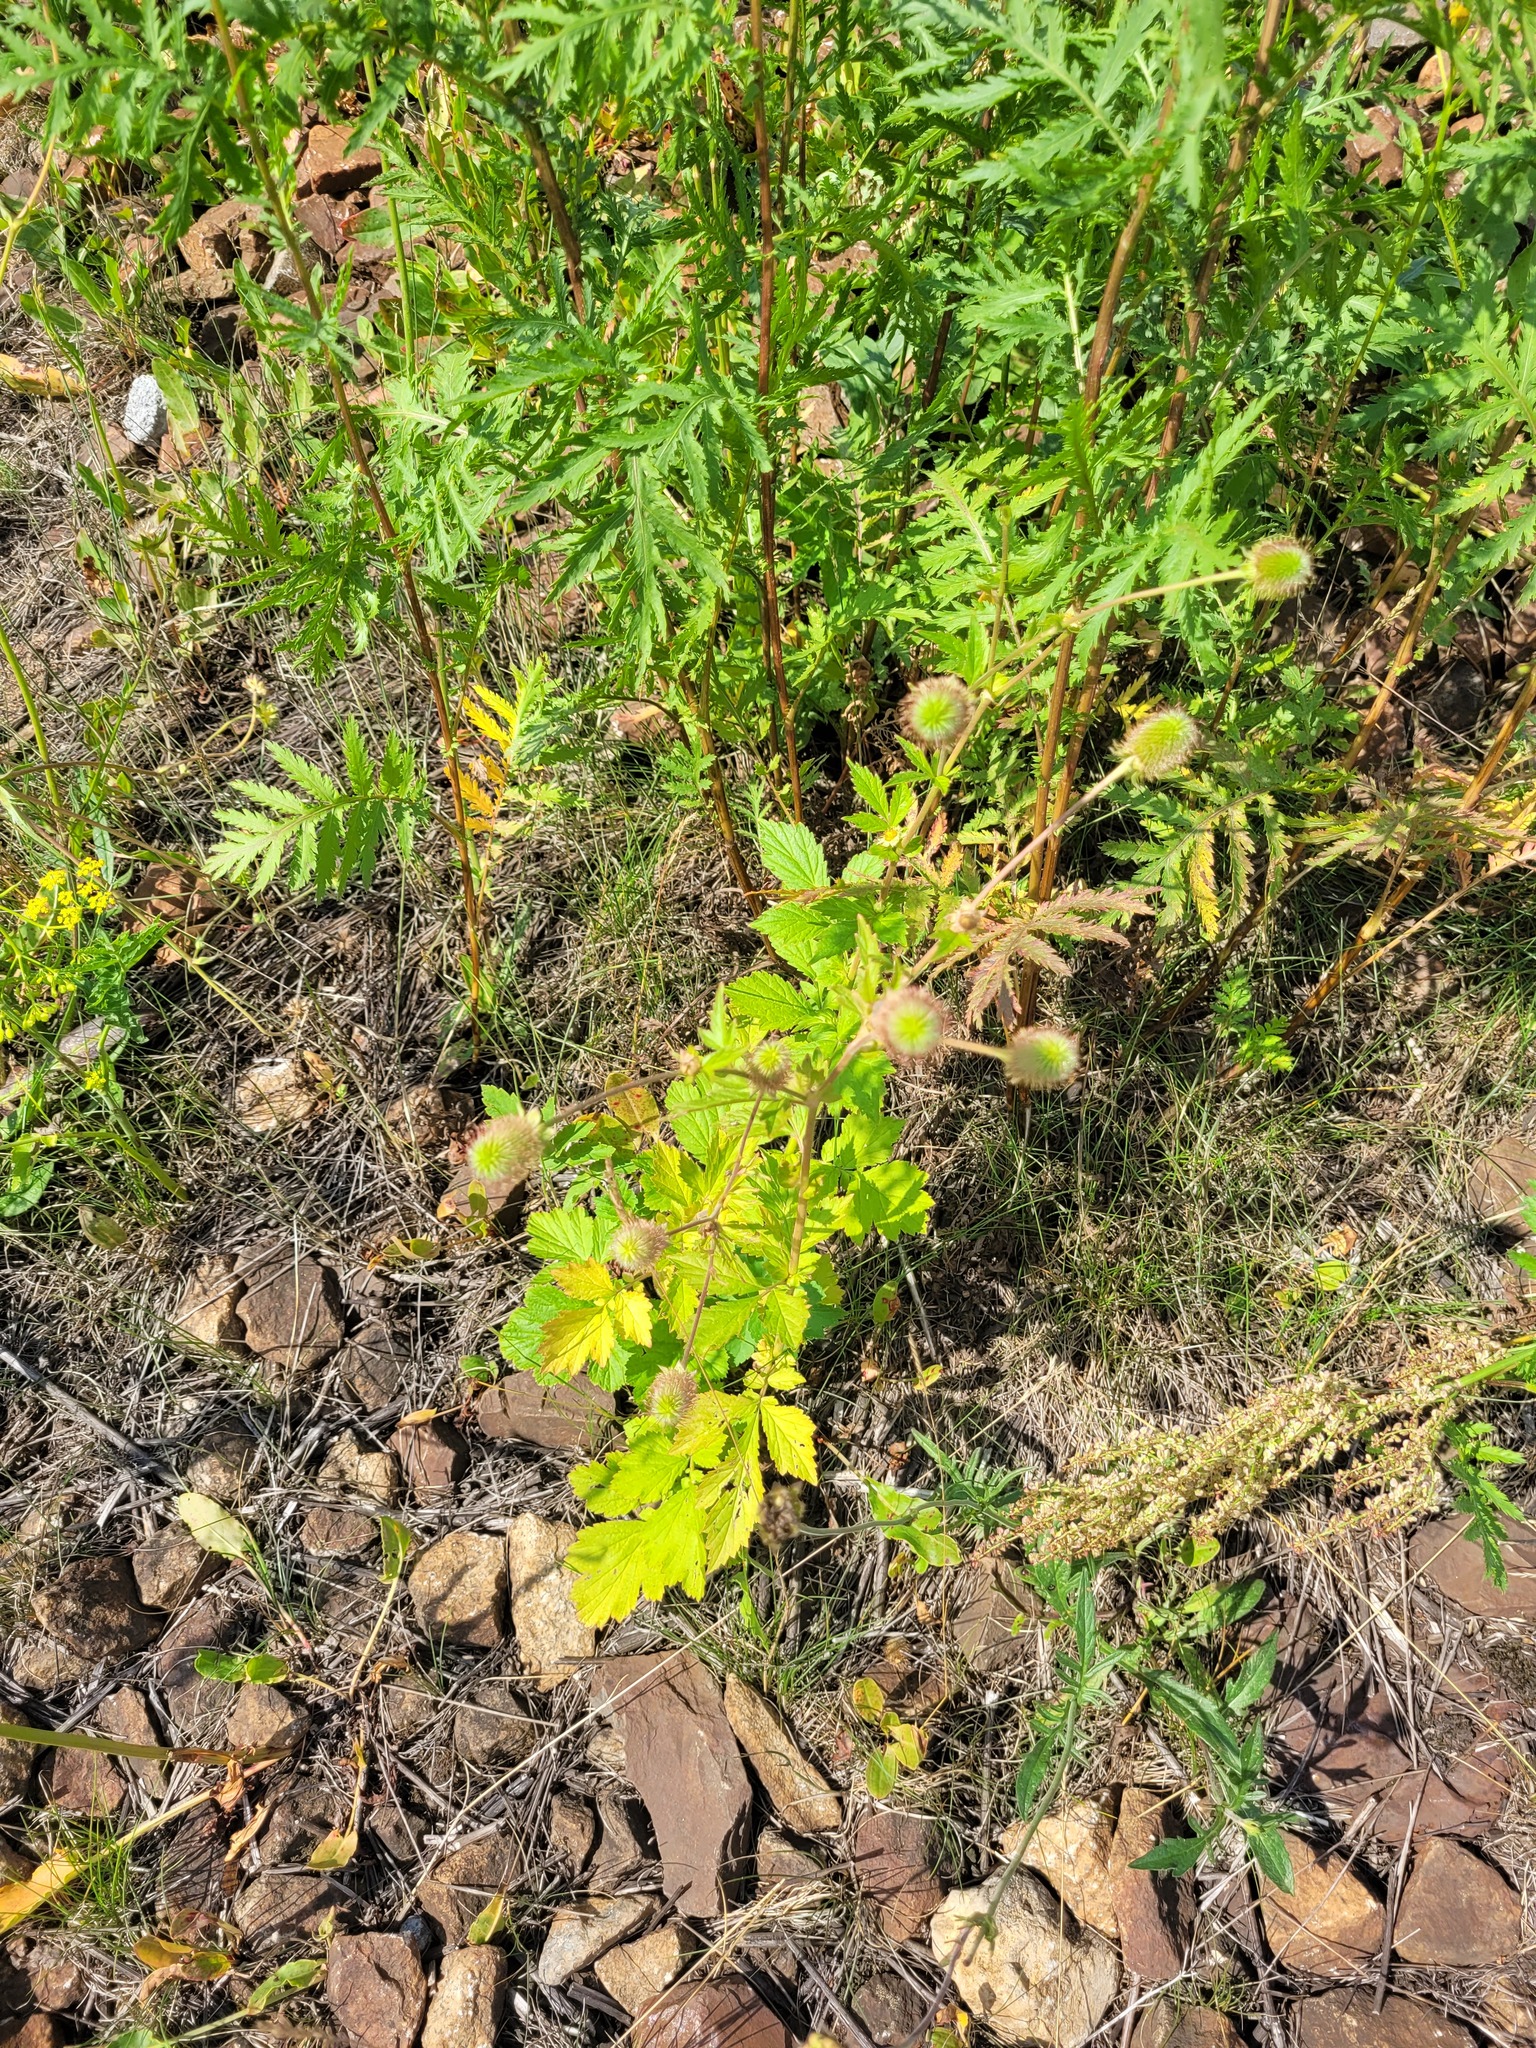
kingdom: Plantae
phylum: Tracheophyta
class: Magnoliopsida
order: Rosales
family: Rosaceae
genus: Geum
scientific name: Geum aleppicum
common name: Yellow avens
